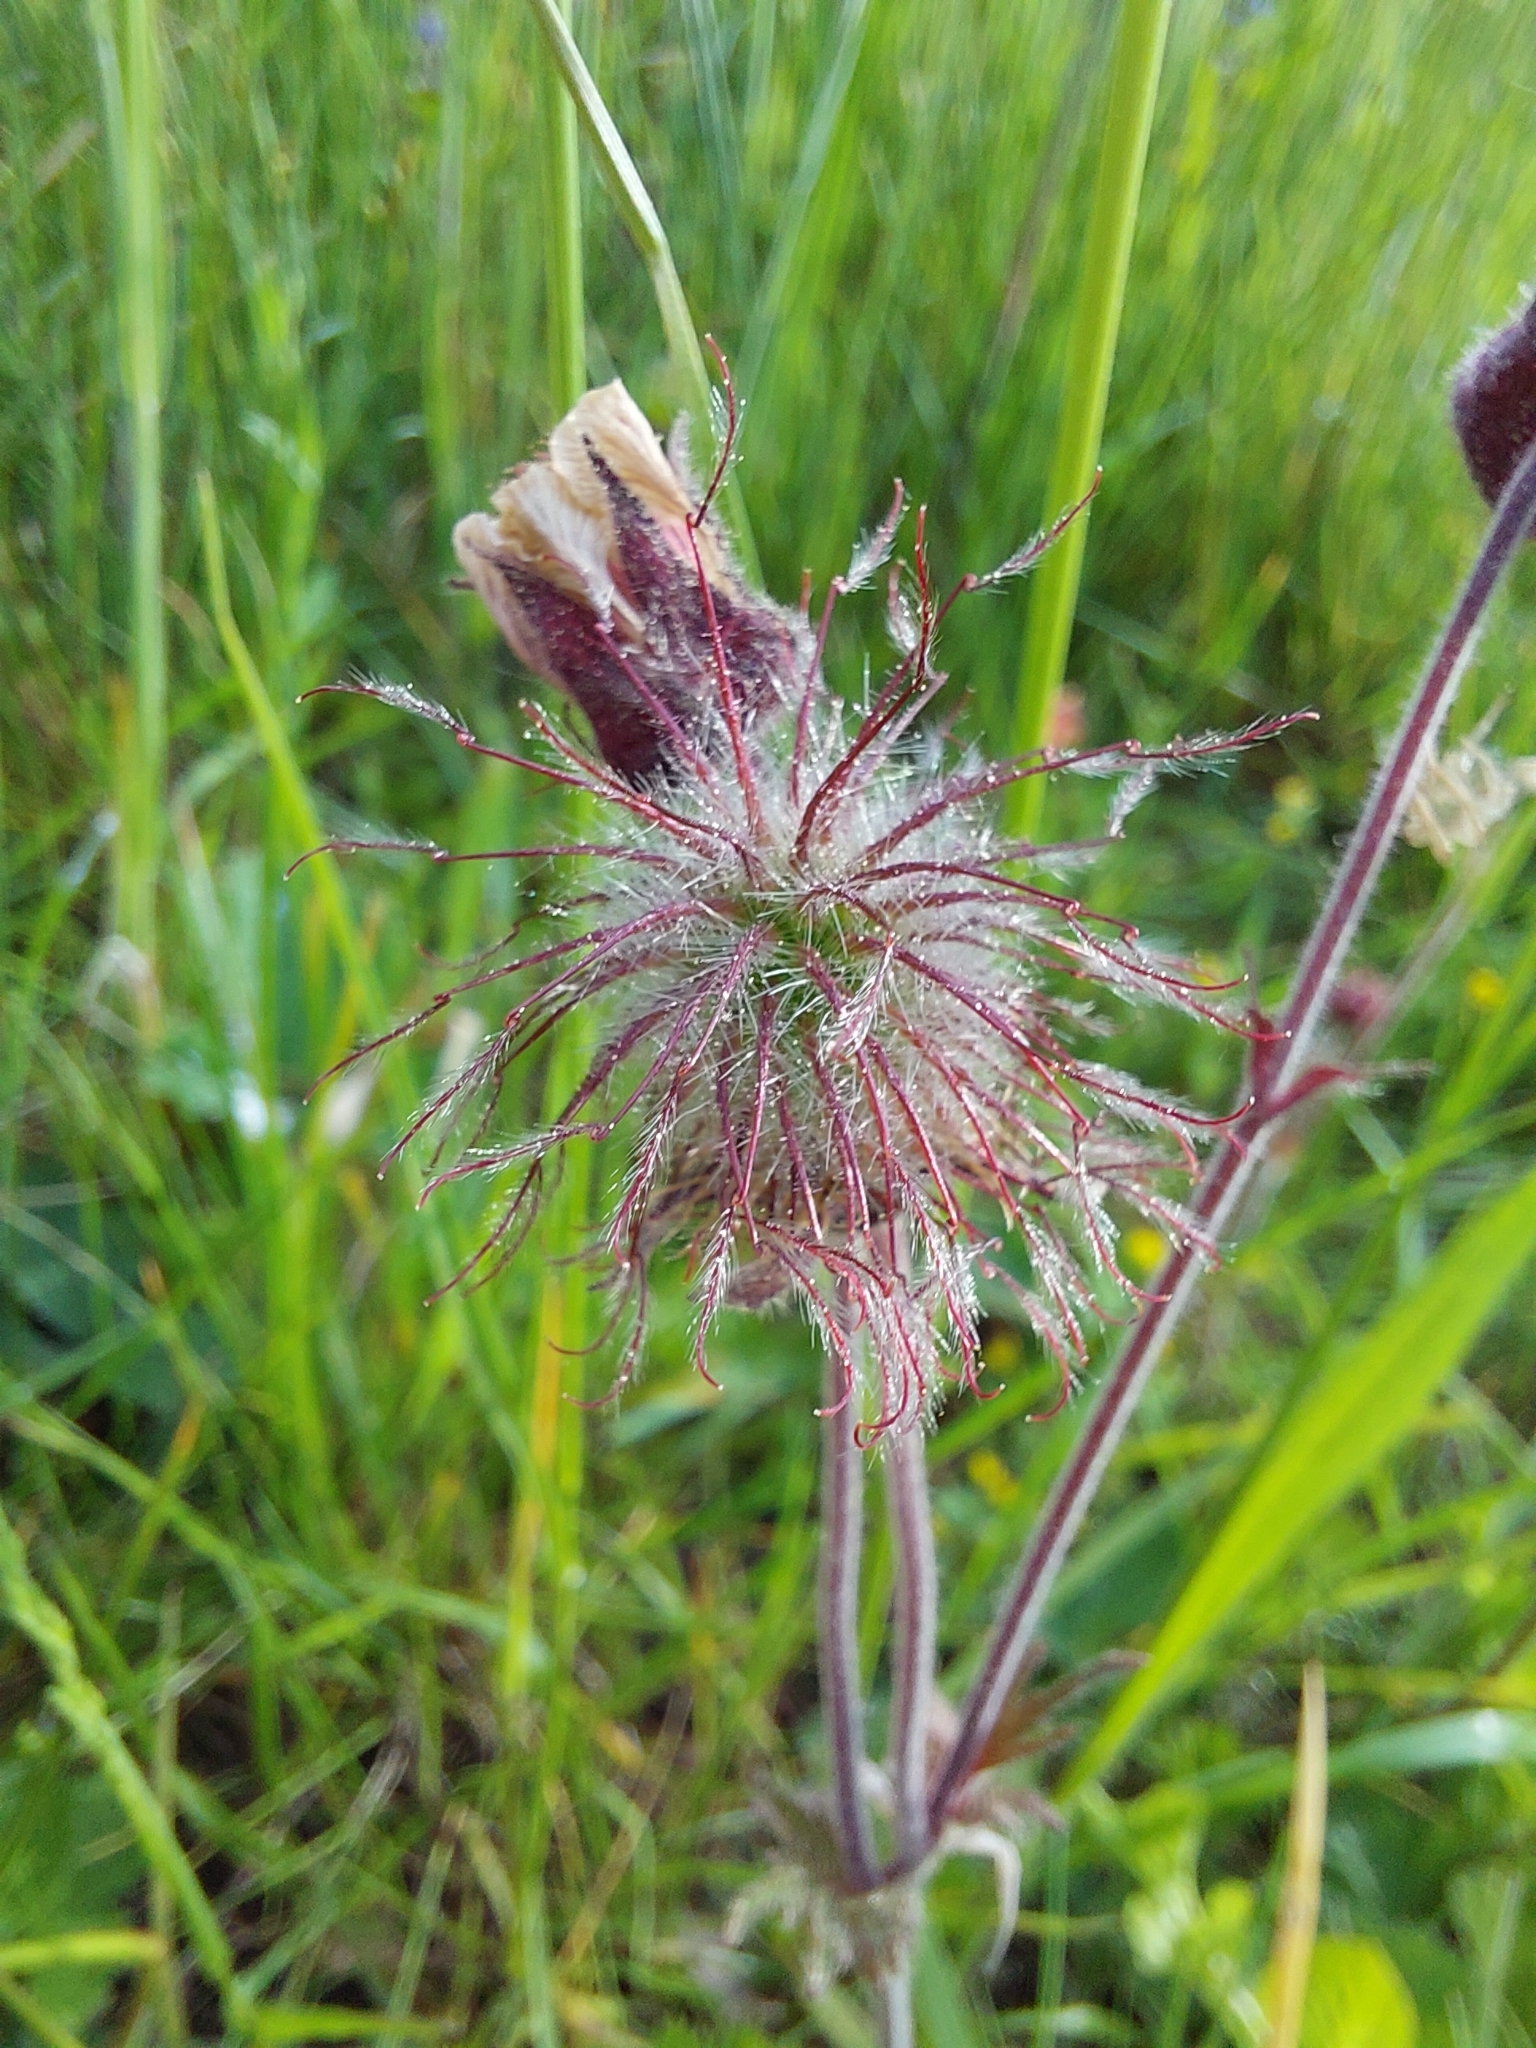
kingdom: Plantae
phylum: Tracheophyta
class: Magnoliopsida
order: Rosales
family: Rosaceae
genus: Geum
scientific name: Geum rivale
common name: Water avens
